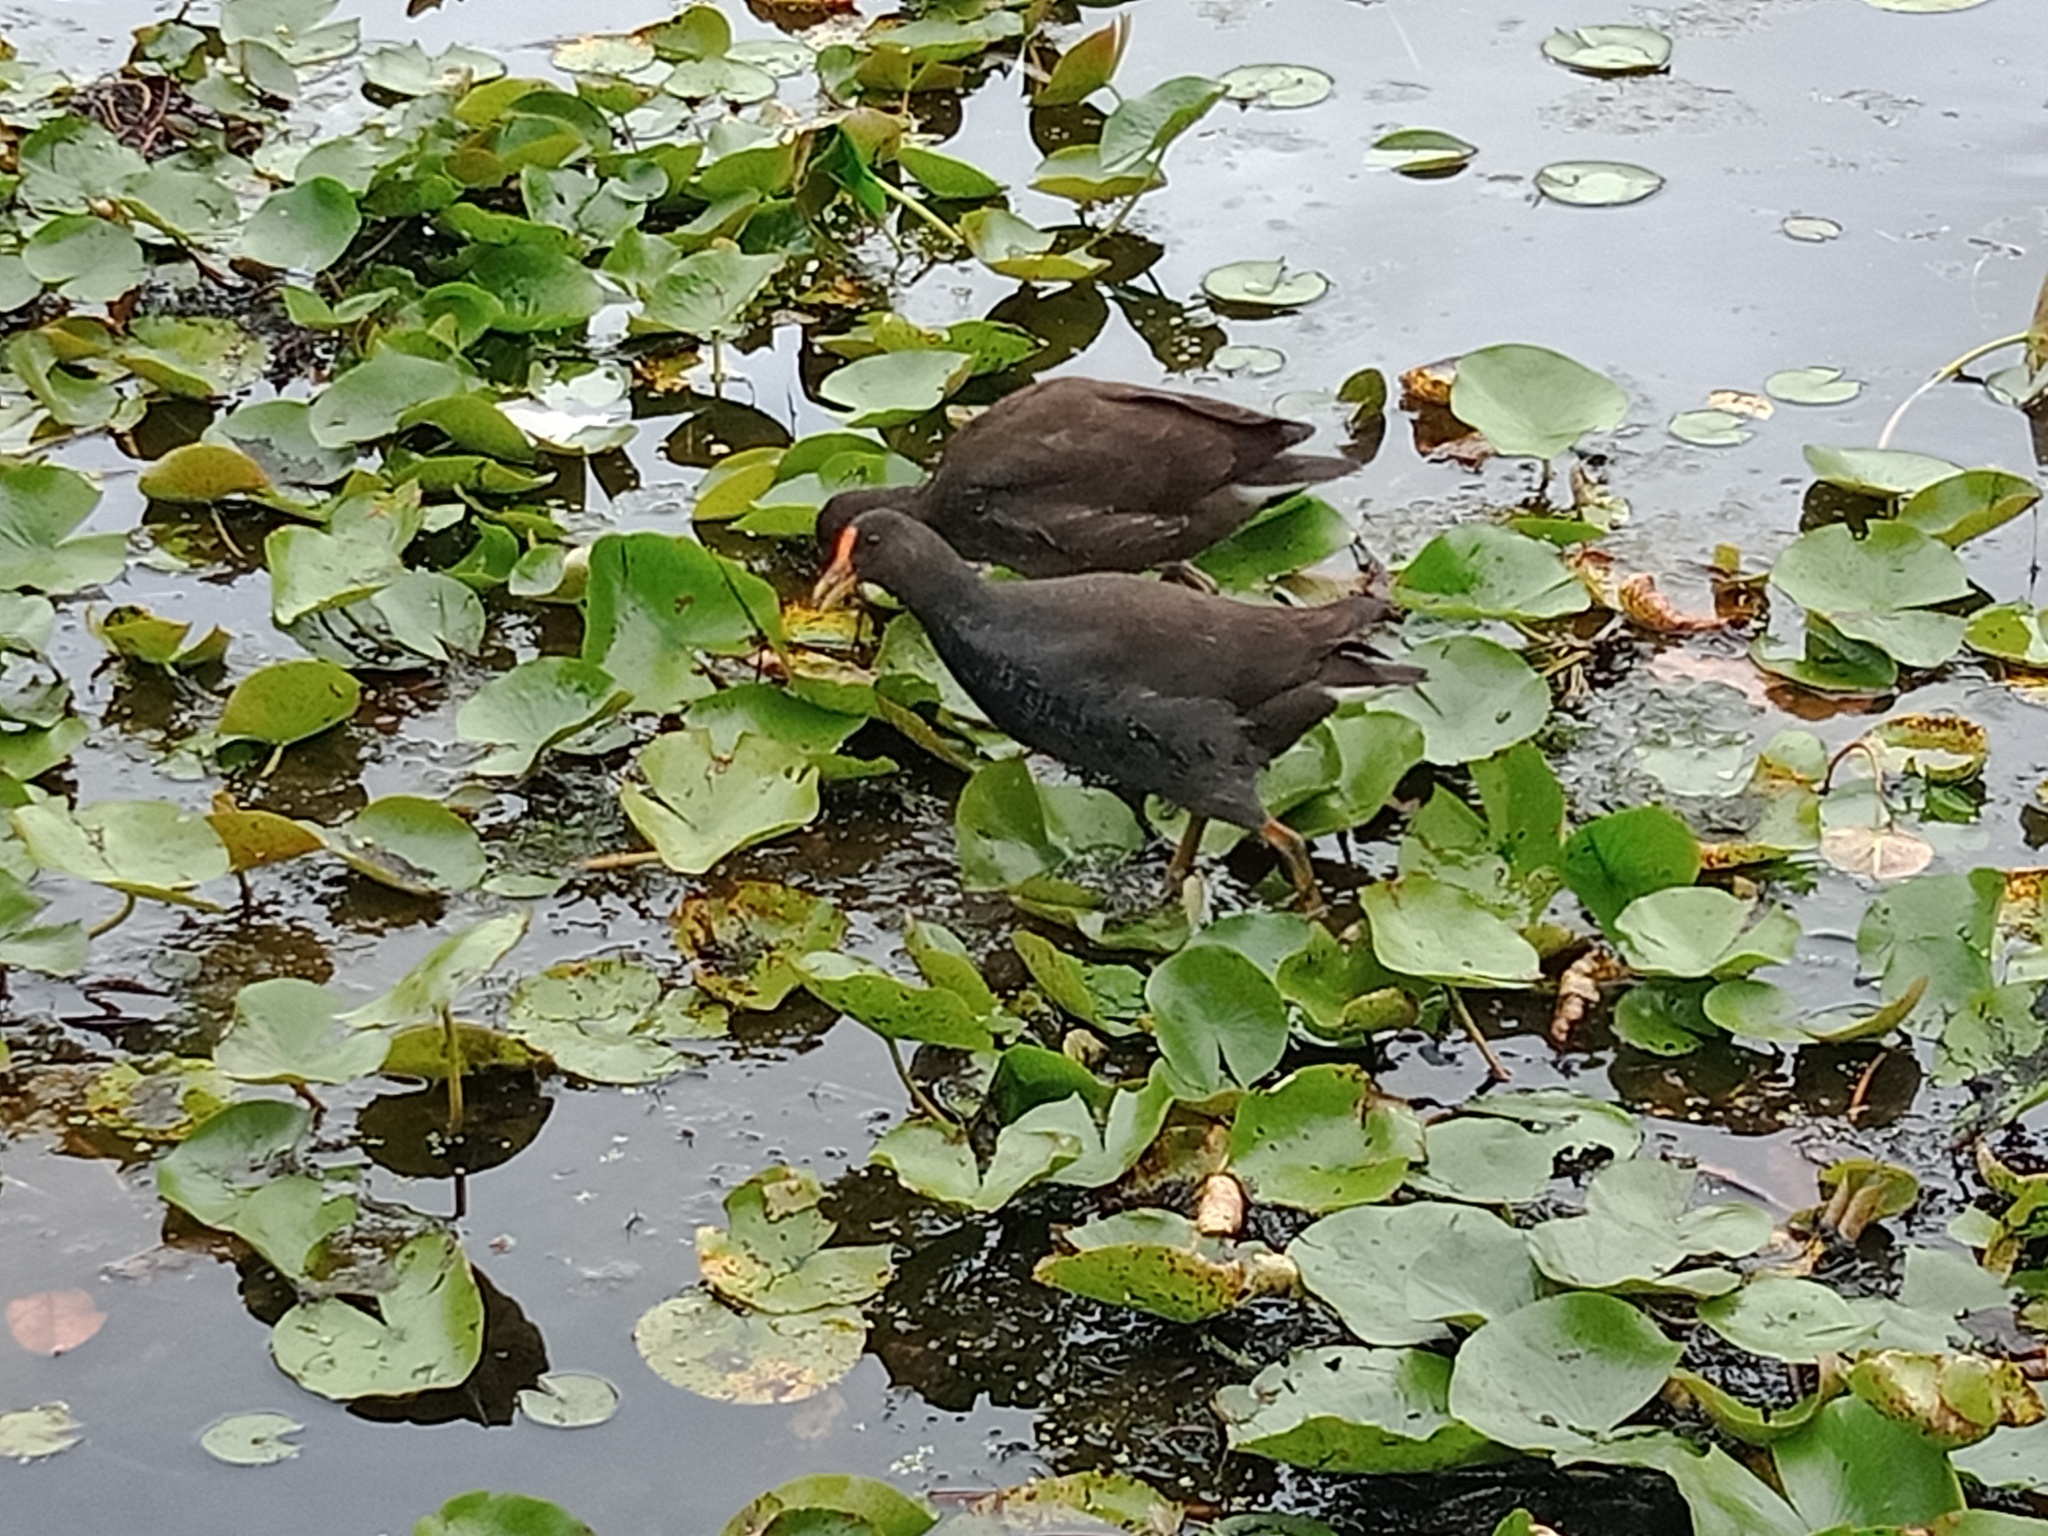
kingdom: Animalia
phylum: Chordata
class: Aves
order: Gruiformes
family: Rallidae
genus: Gallinula
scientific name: Gallinula tenebrosa
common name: Dusky moorhen
